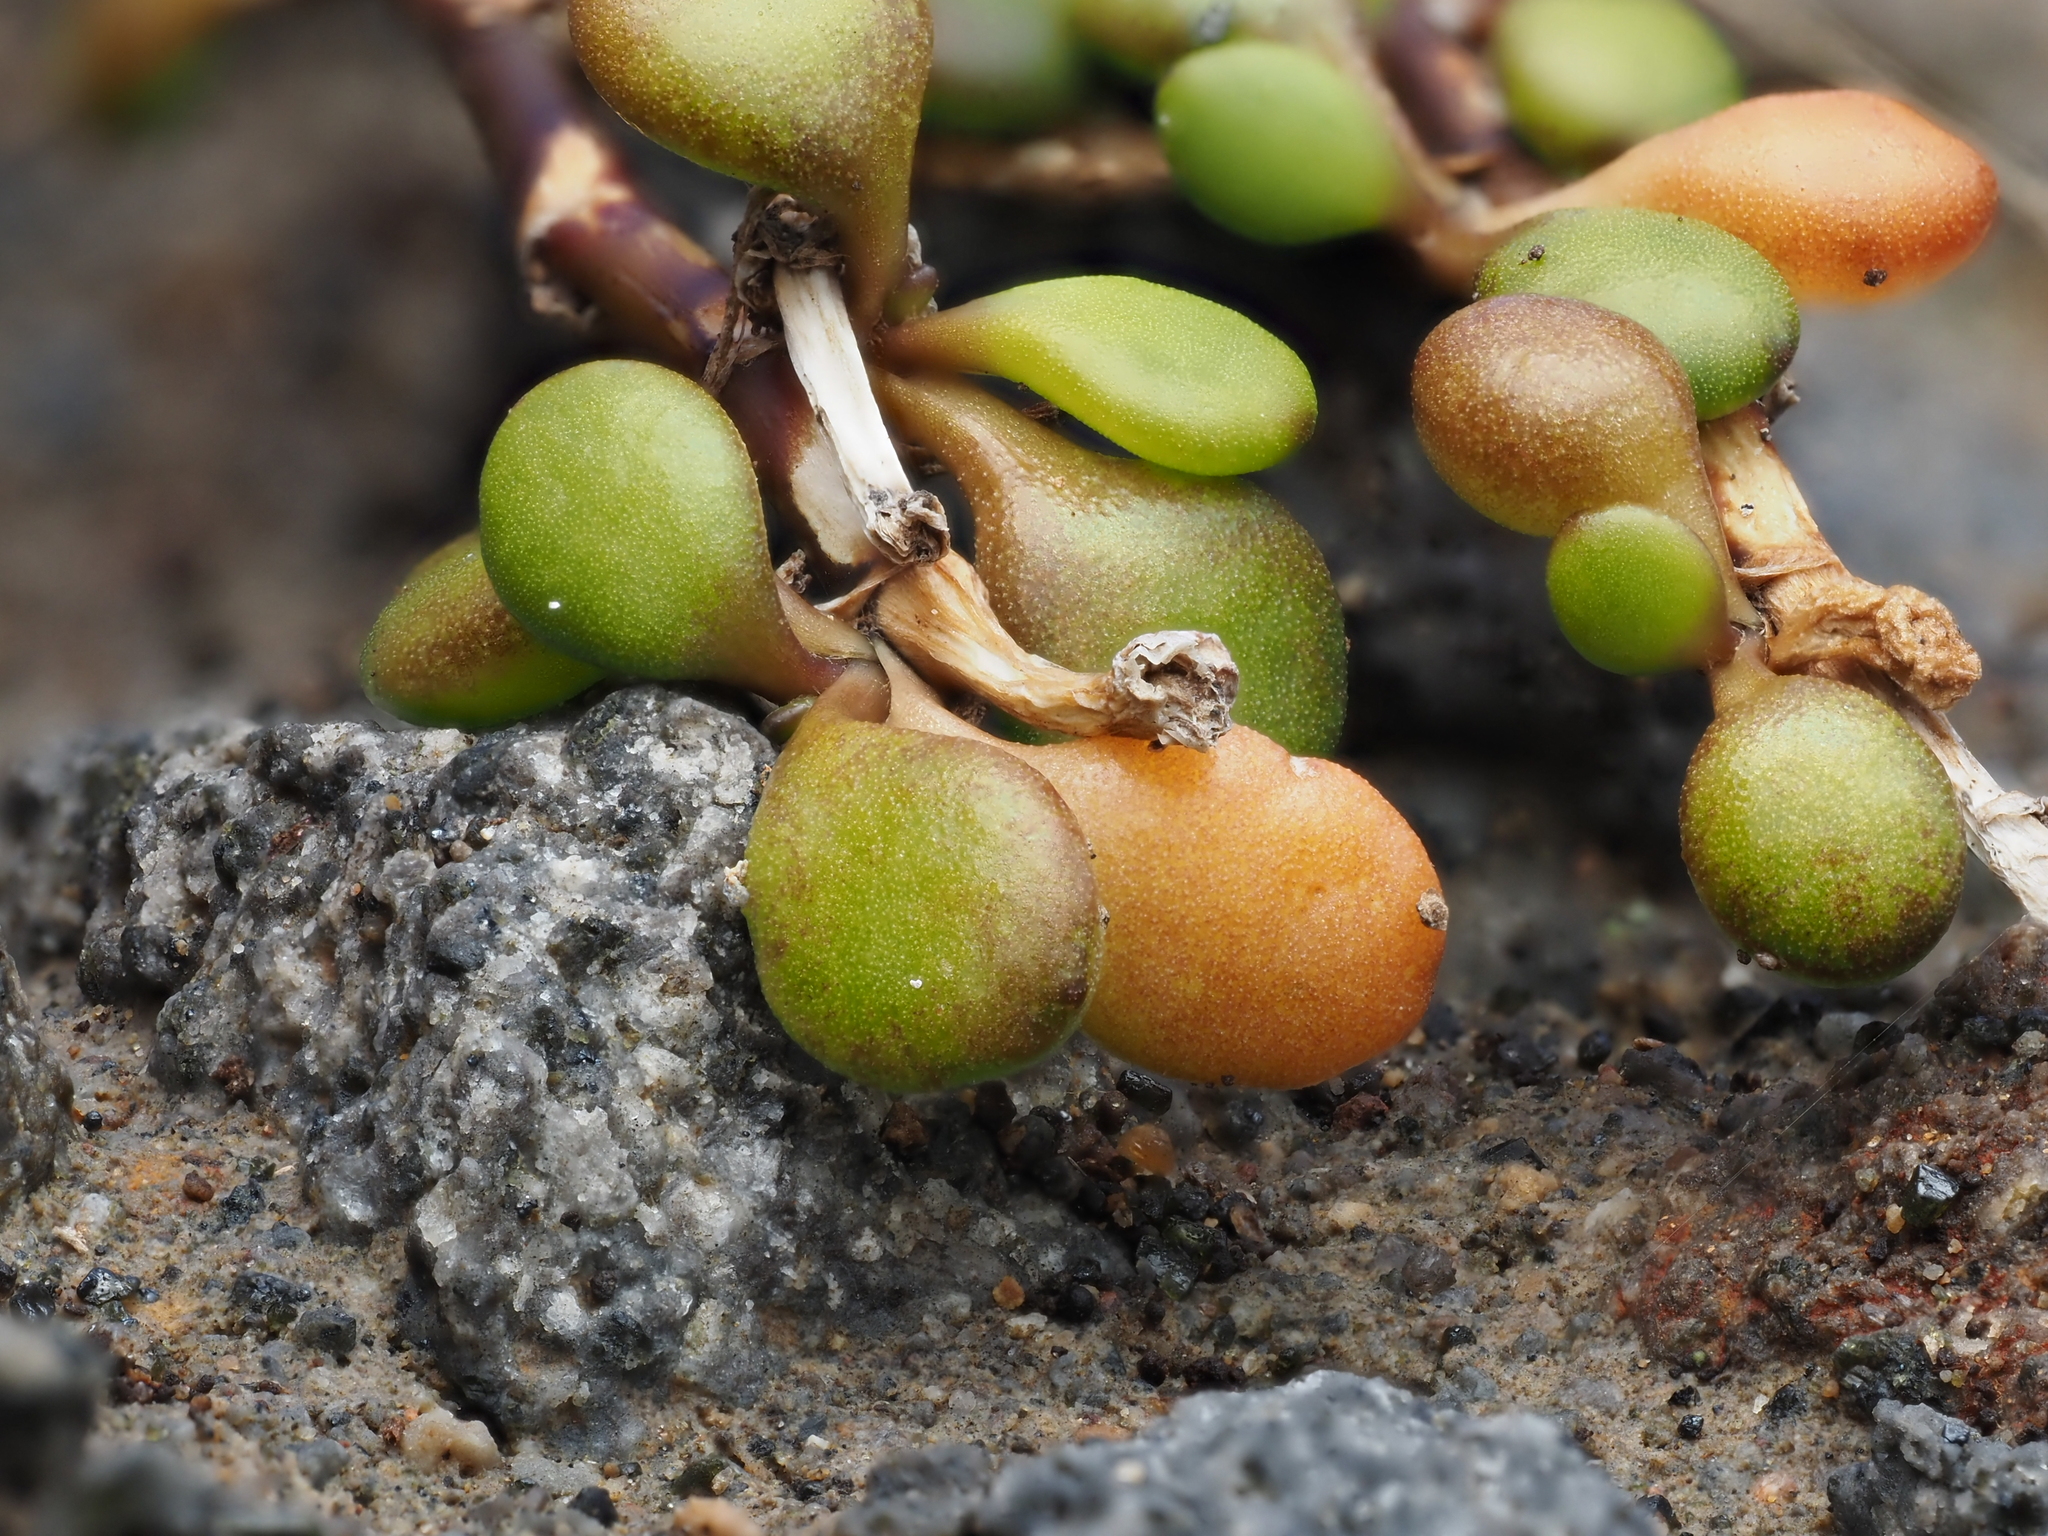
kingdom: Plantae
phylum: Tracheophyta
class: Magnoliopsida
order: Asterales
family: Goodeniaceae
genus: Goodenia
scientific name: Goodenia radicans
